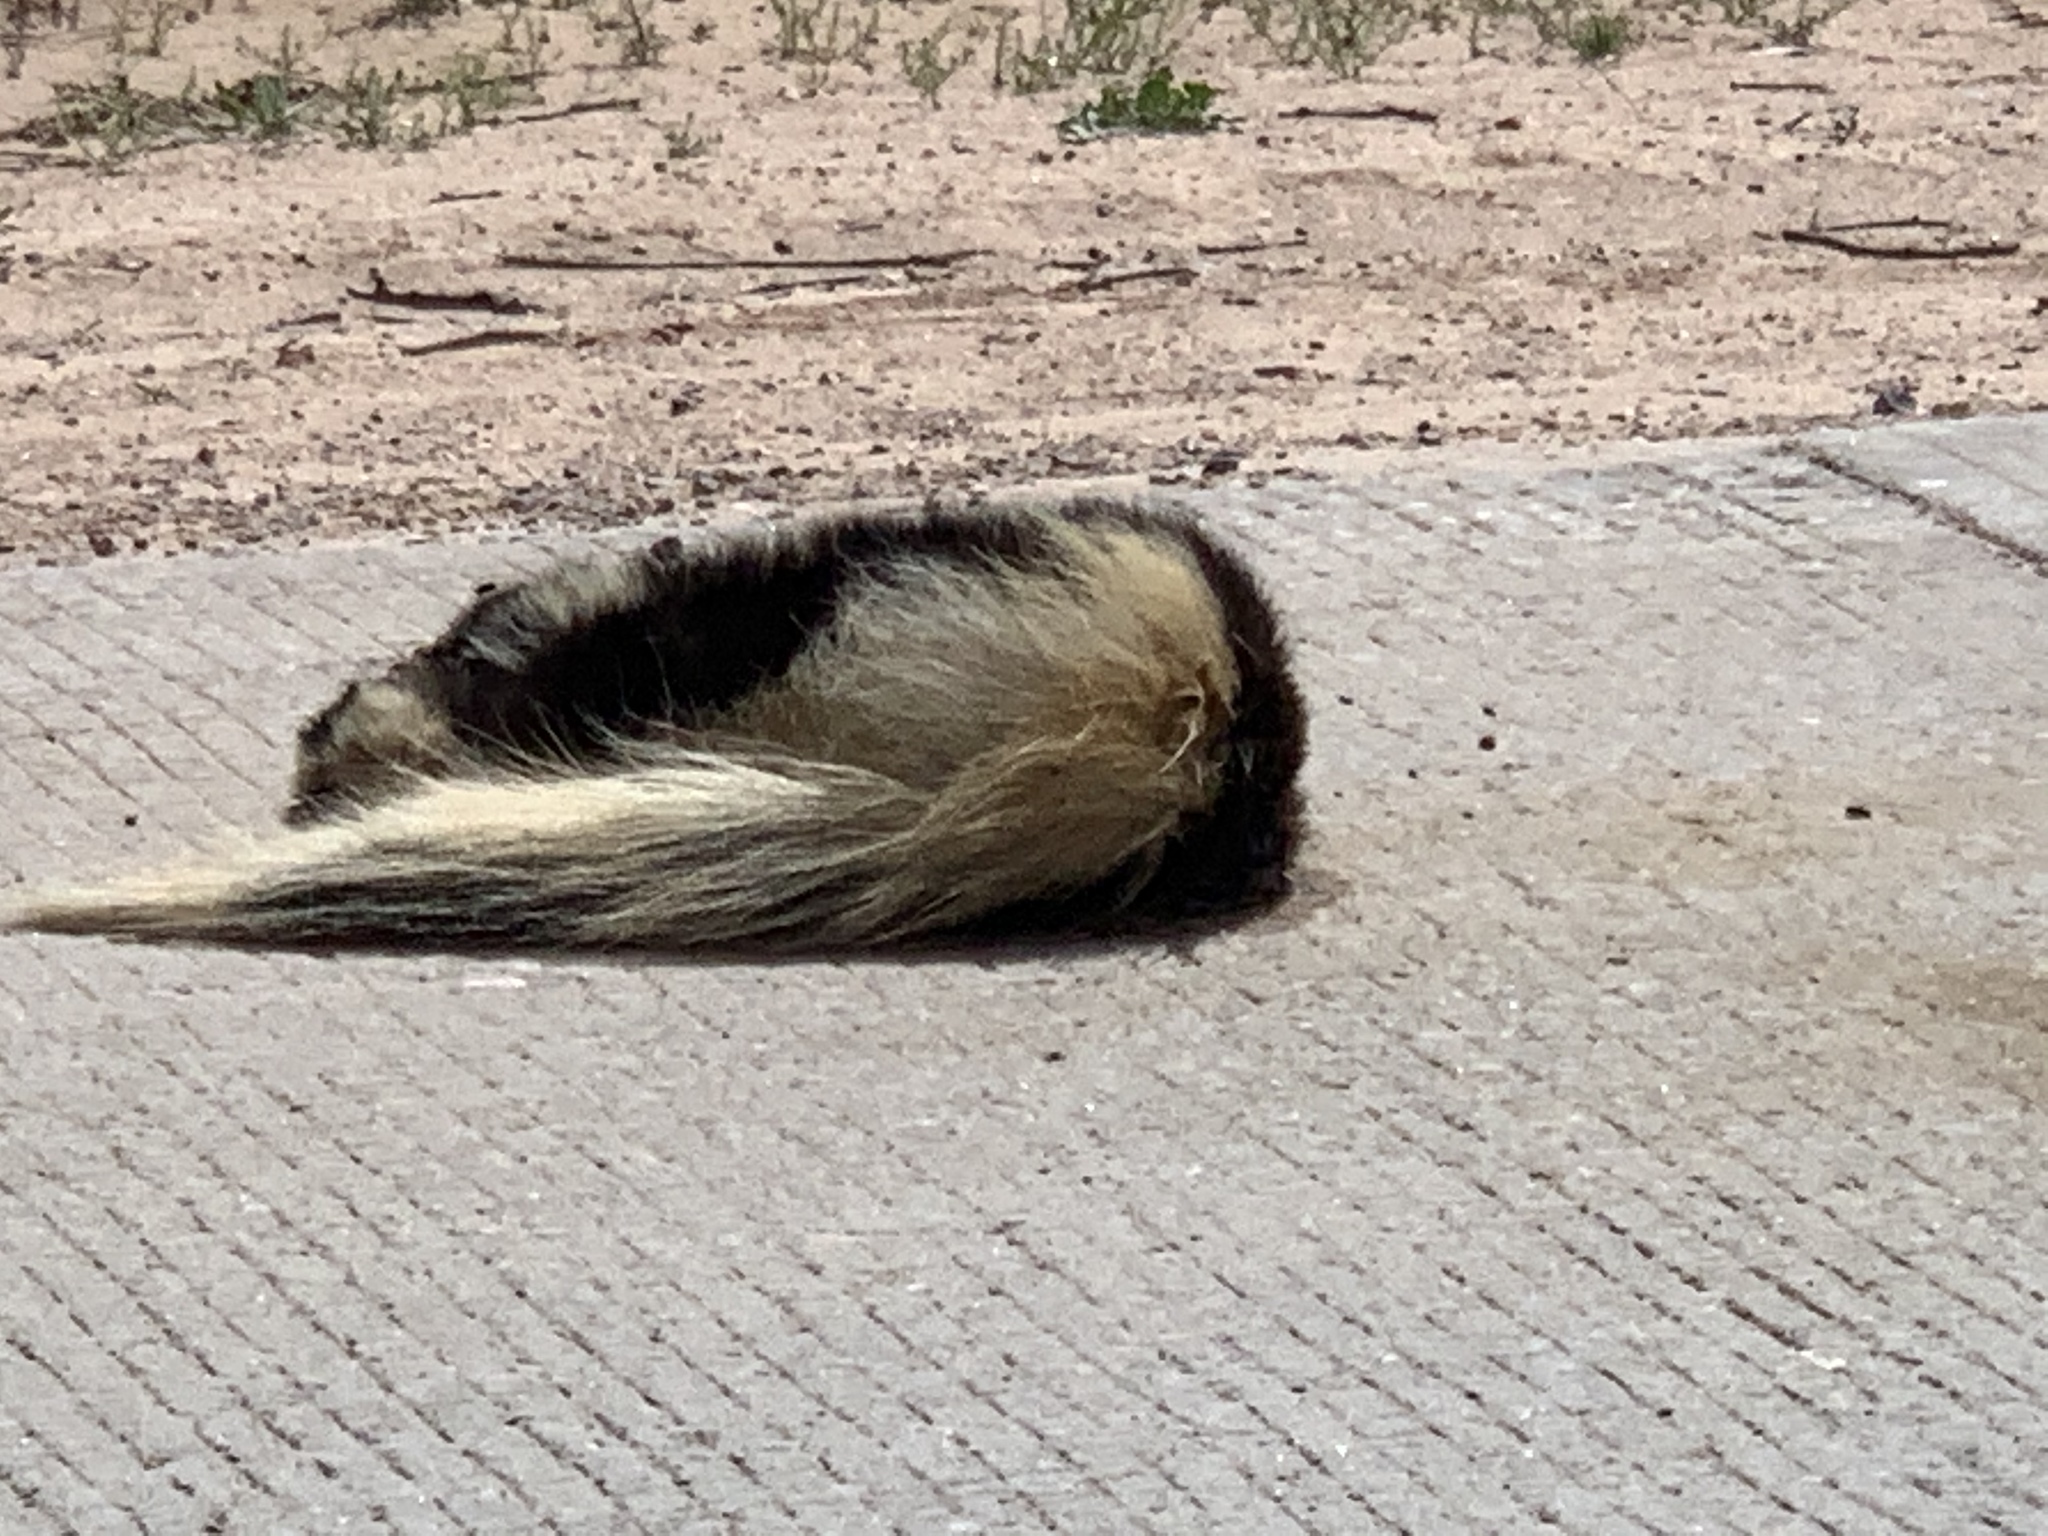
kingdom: Animalia
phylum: Chordata
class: Mammalia
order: Carnivora
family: Mephitidae
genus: Mephitis
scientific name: Mephitis mephitis
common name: Striped skunk
